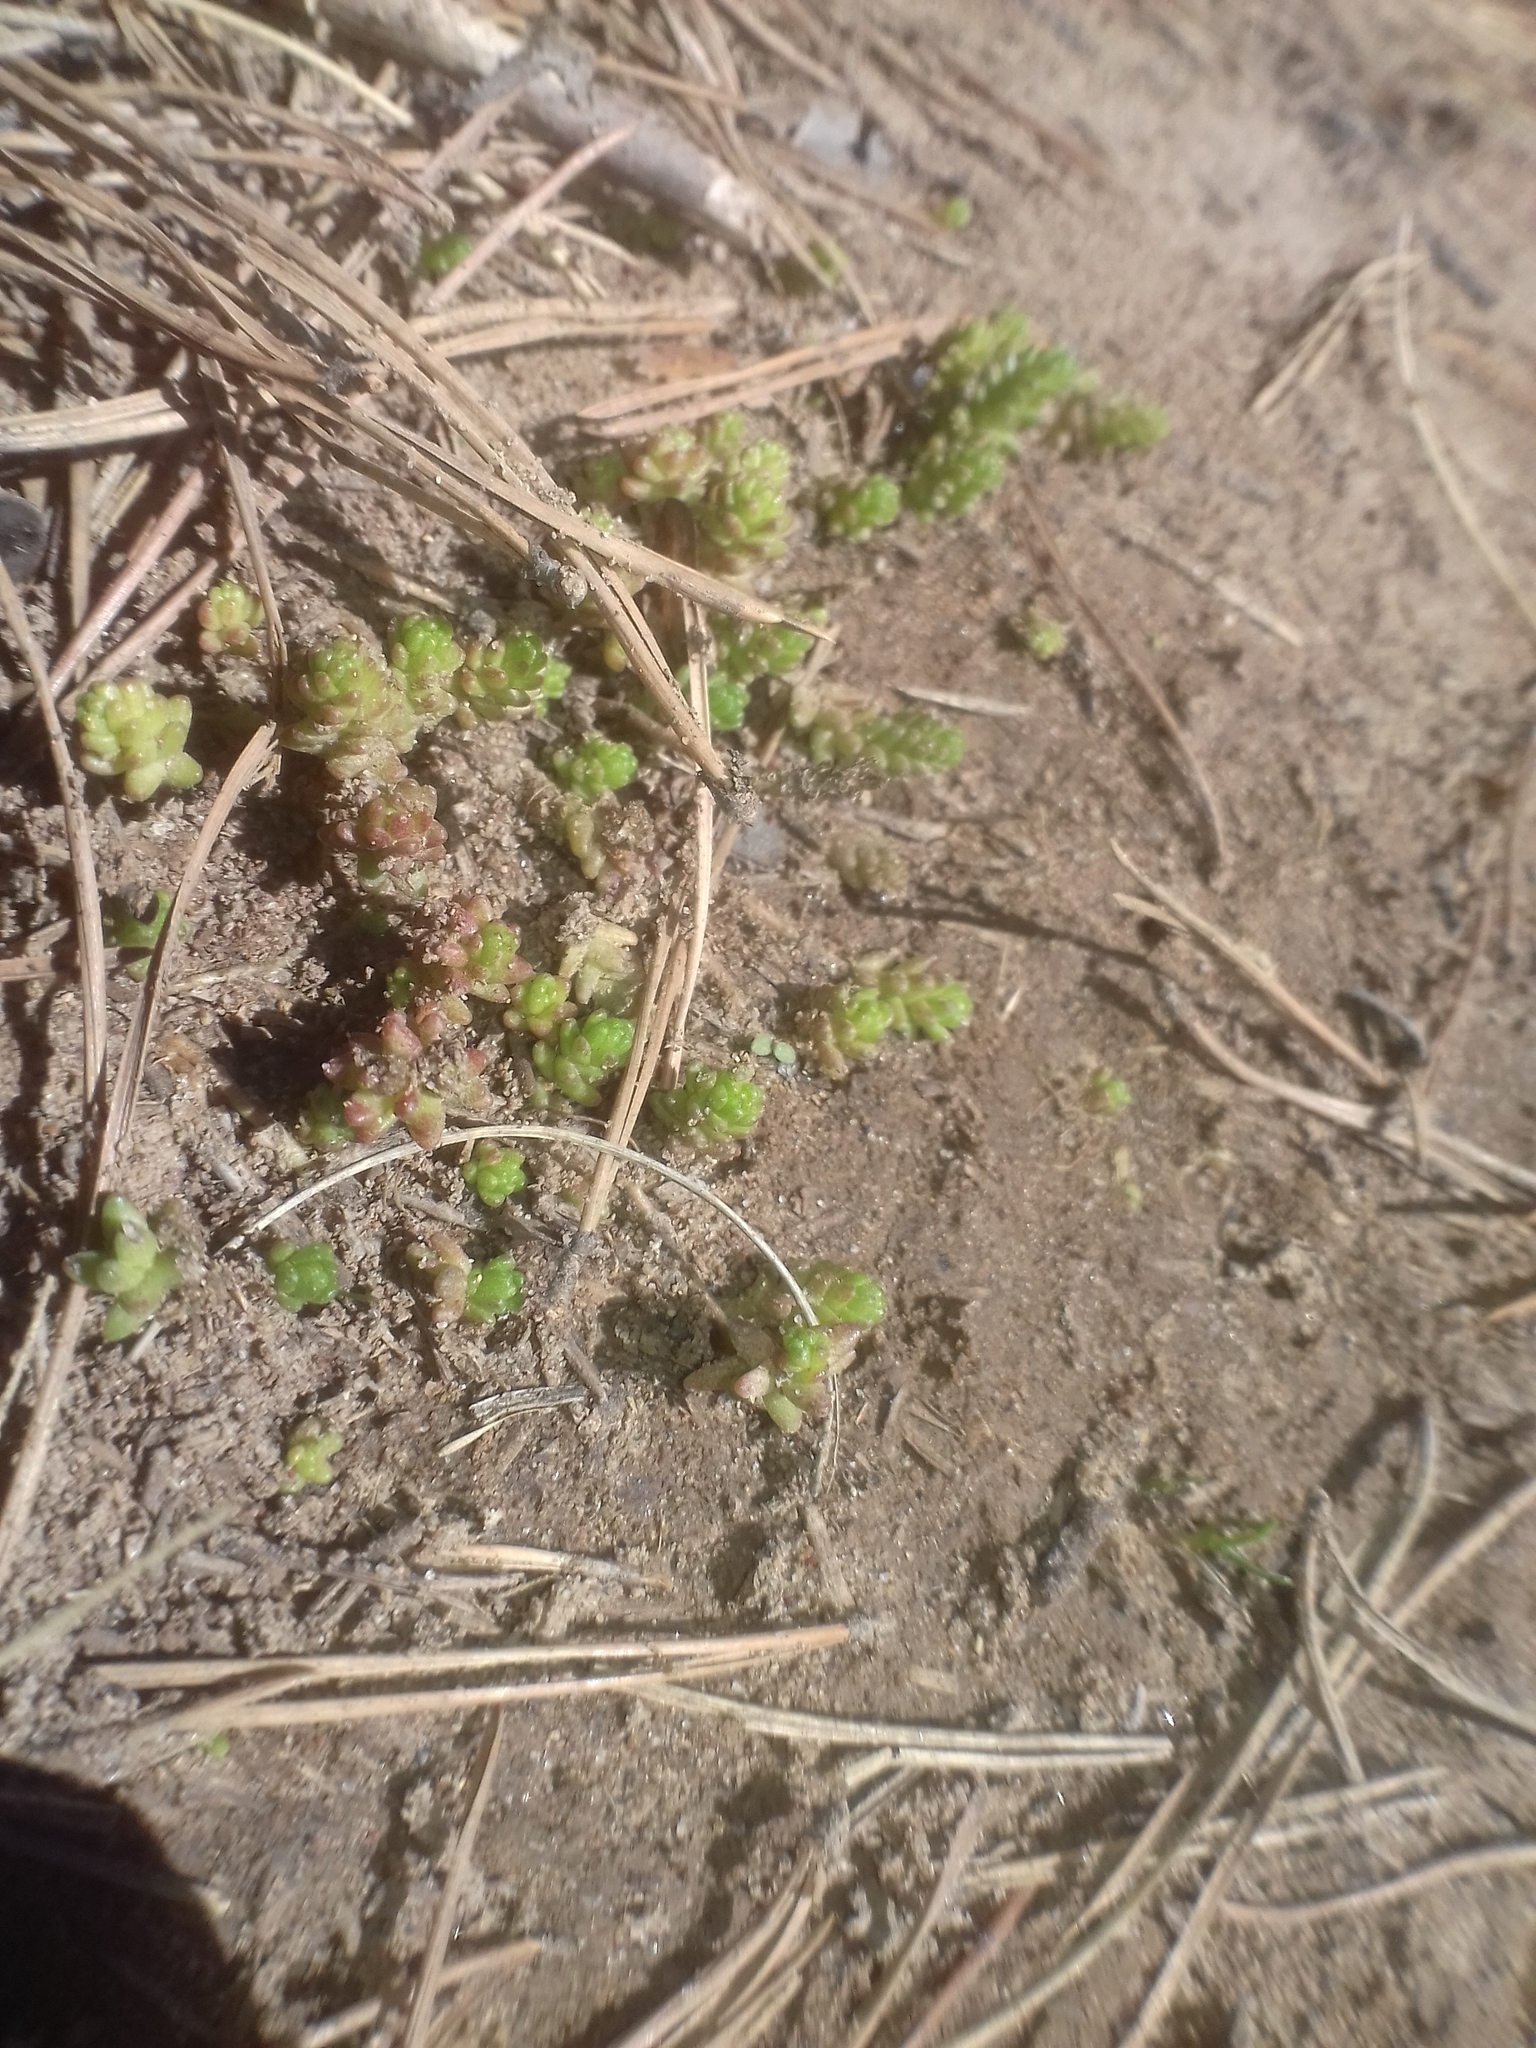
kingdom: Plantae
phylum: Tracheophyta
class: Magnoliopsida
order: Saxifragales
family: Crassulaceae
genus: Sedum
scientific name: Sedum acre
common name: Biting stonecrop
